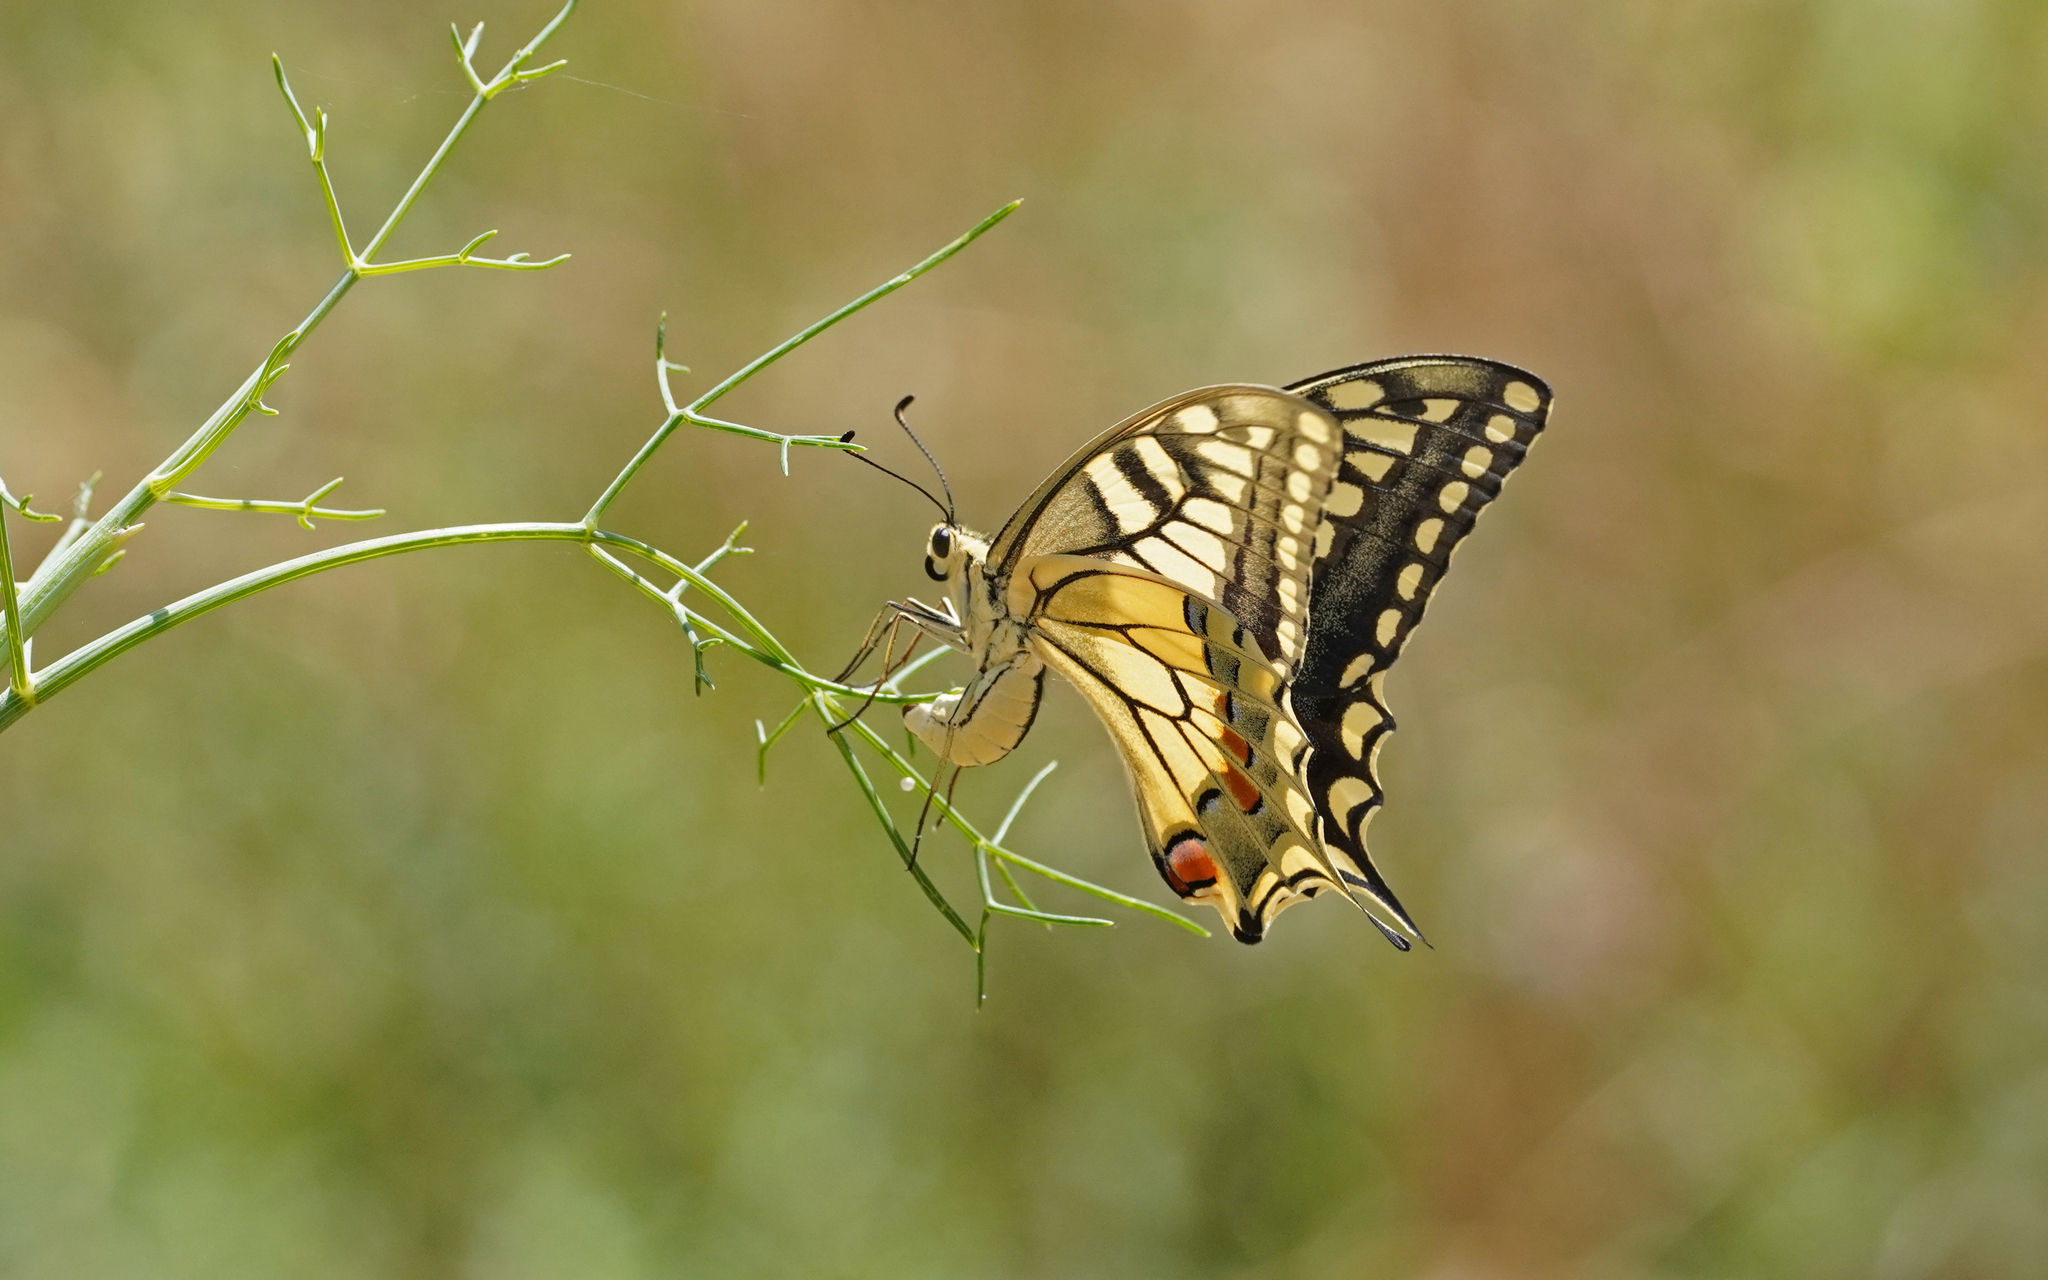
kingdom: Animalia
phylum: Arthropoda
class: Insecta
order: Lepidoptera
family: Papilionidae
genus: Papilio
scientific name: Papilio machaon
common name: Swallowtail
